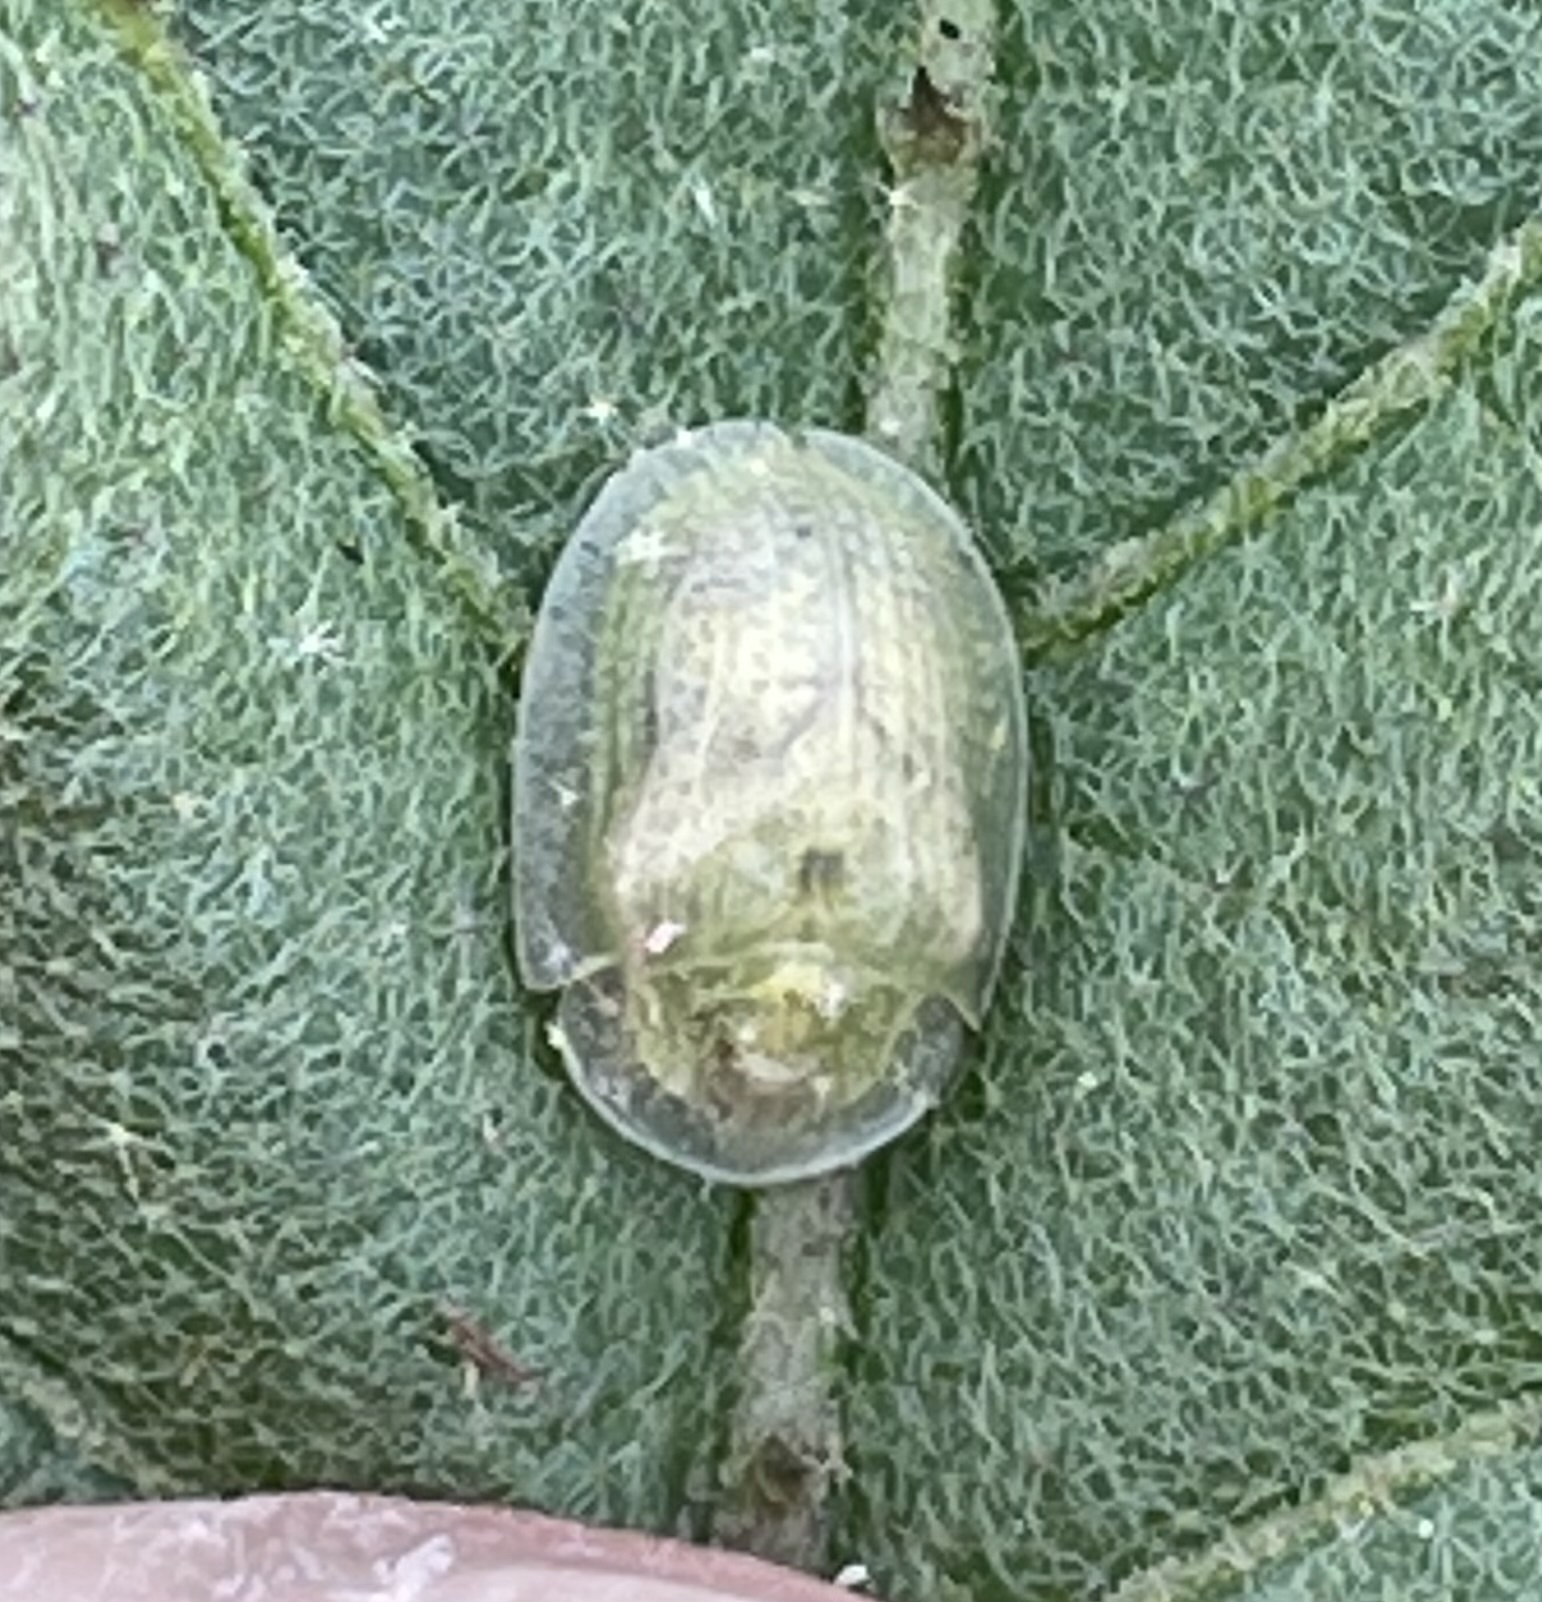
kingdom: Animalia
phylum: Arthropoda
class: Insecta
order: Coleoptera
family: Chrysomelidae
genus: Gratiana
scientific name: Gratiana pallidula
